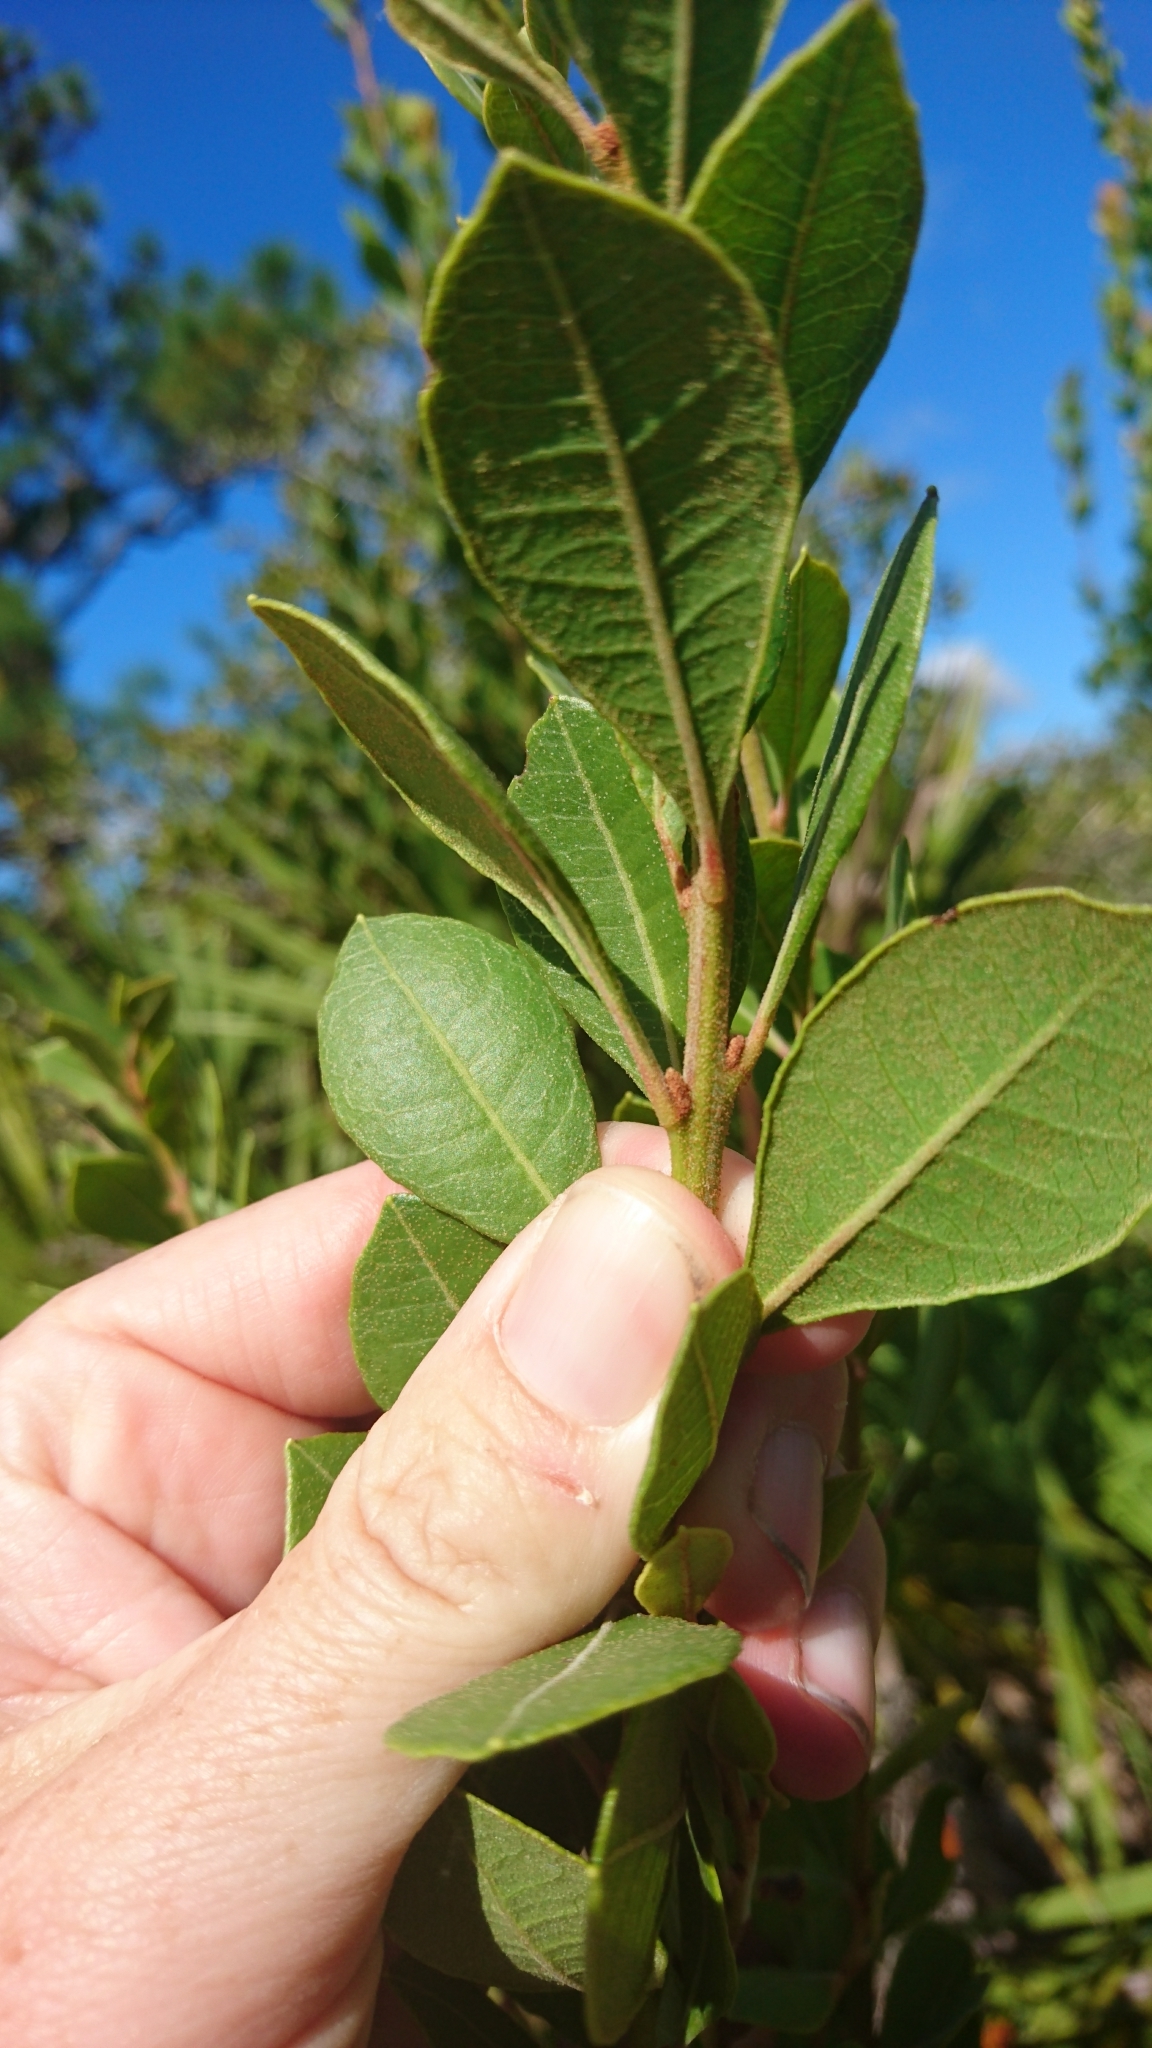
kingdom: Plantae
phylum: Tracheophyta
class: Magnoliopsida
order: Ericales
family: Ericaceae
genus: Lyonia
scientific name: Lyonia fruticosa
